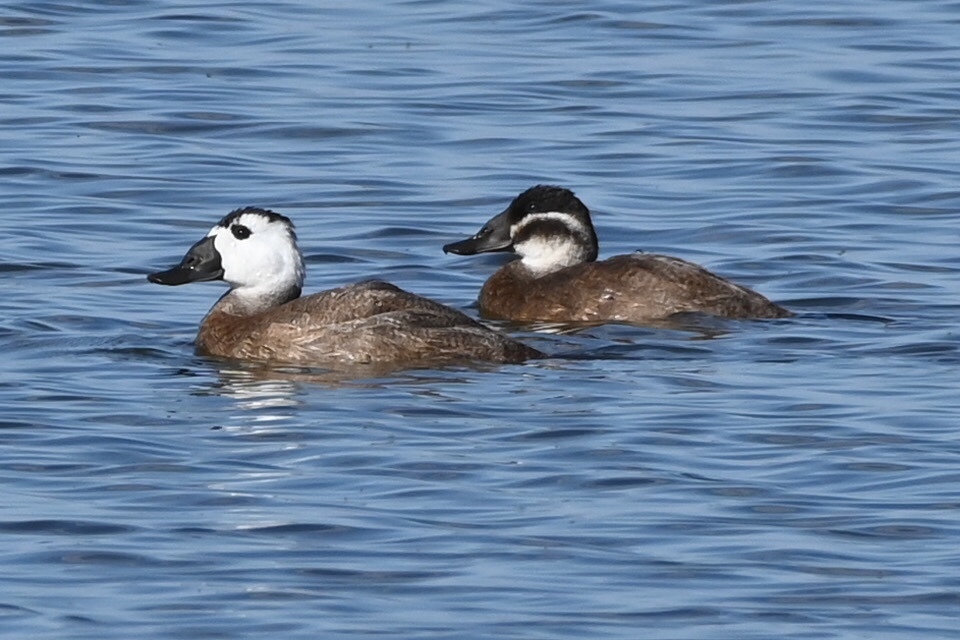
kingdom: Animalia
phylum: Chordata
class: Aves
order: Anseriformes
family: Anatidae
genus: Oxyura
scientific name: Oxyura leucocephala
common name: White-headed duck
